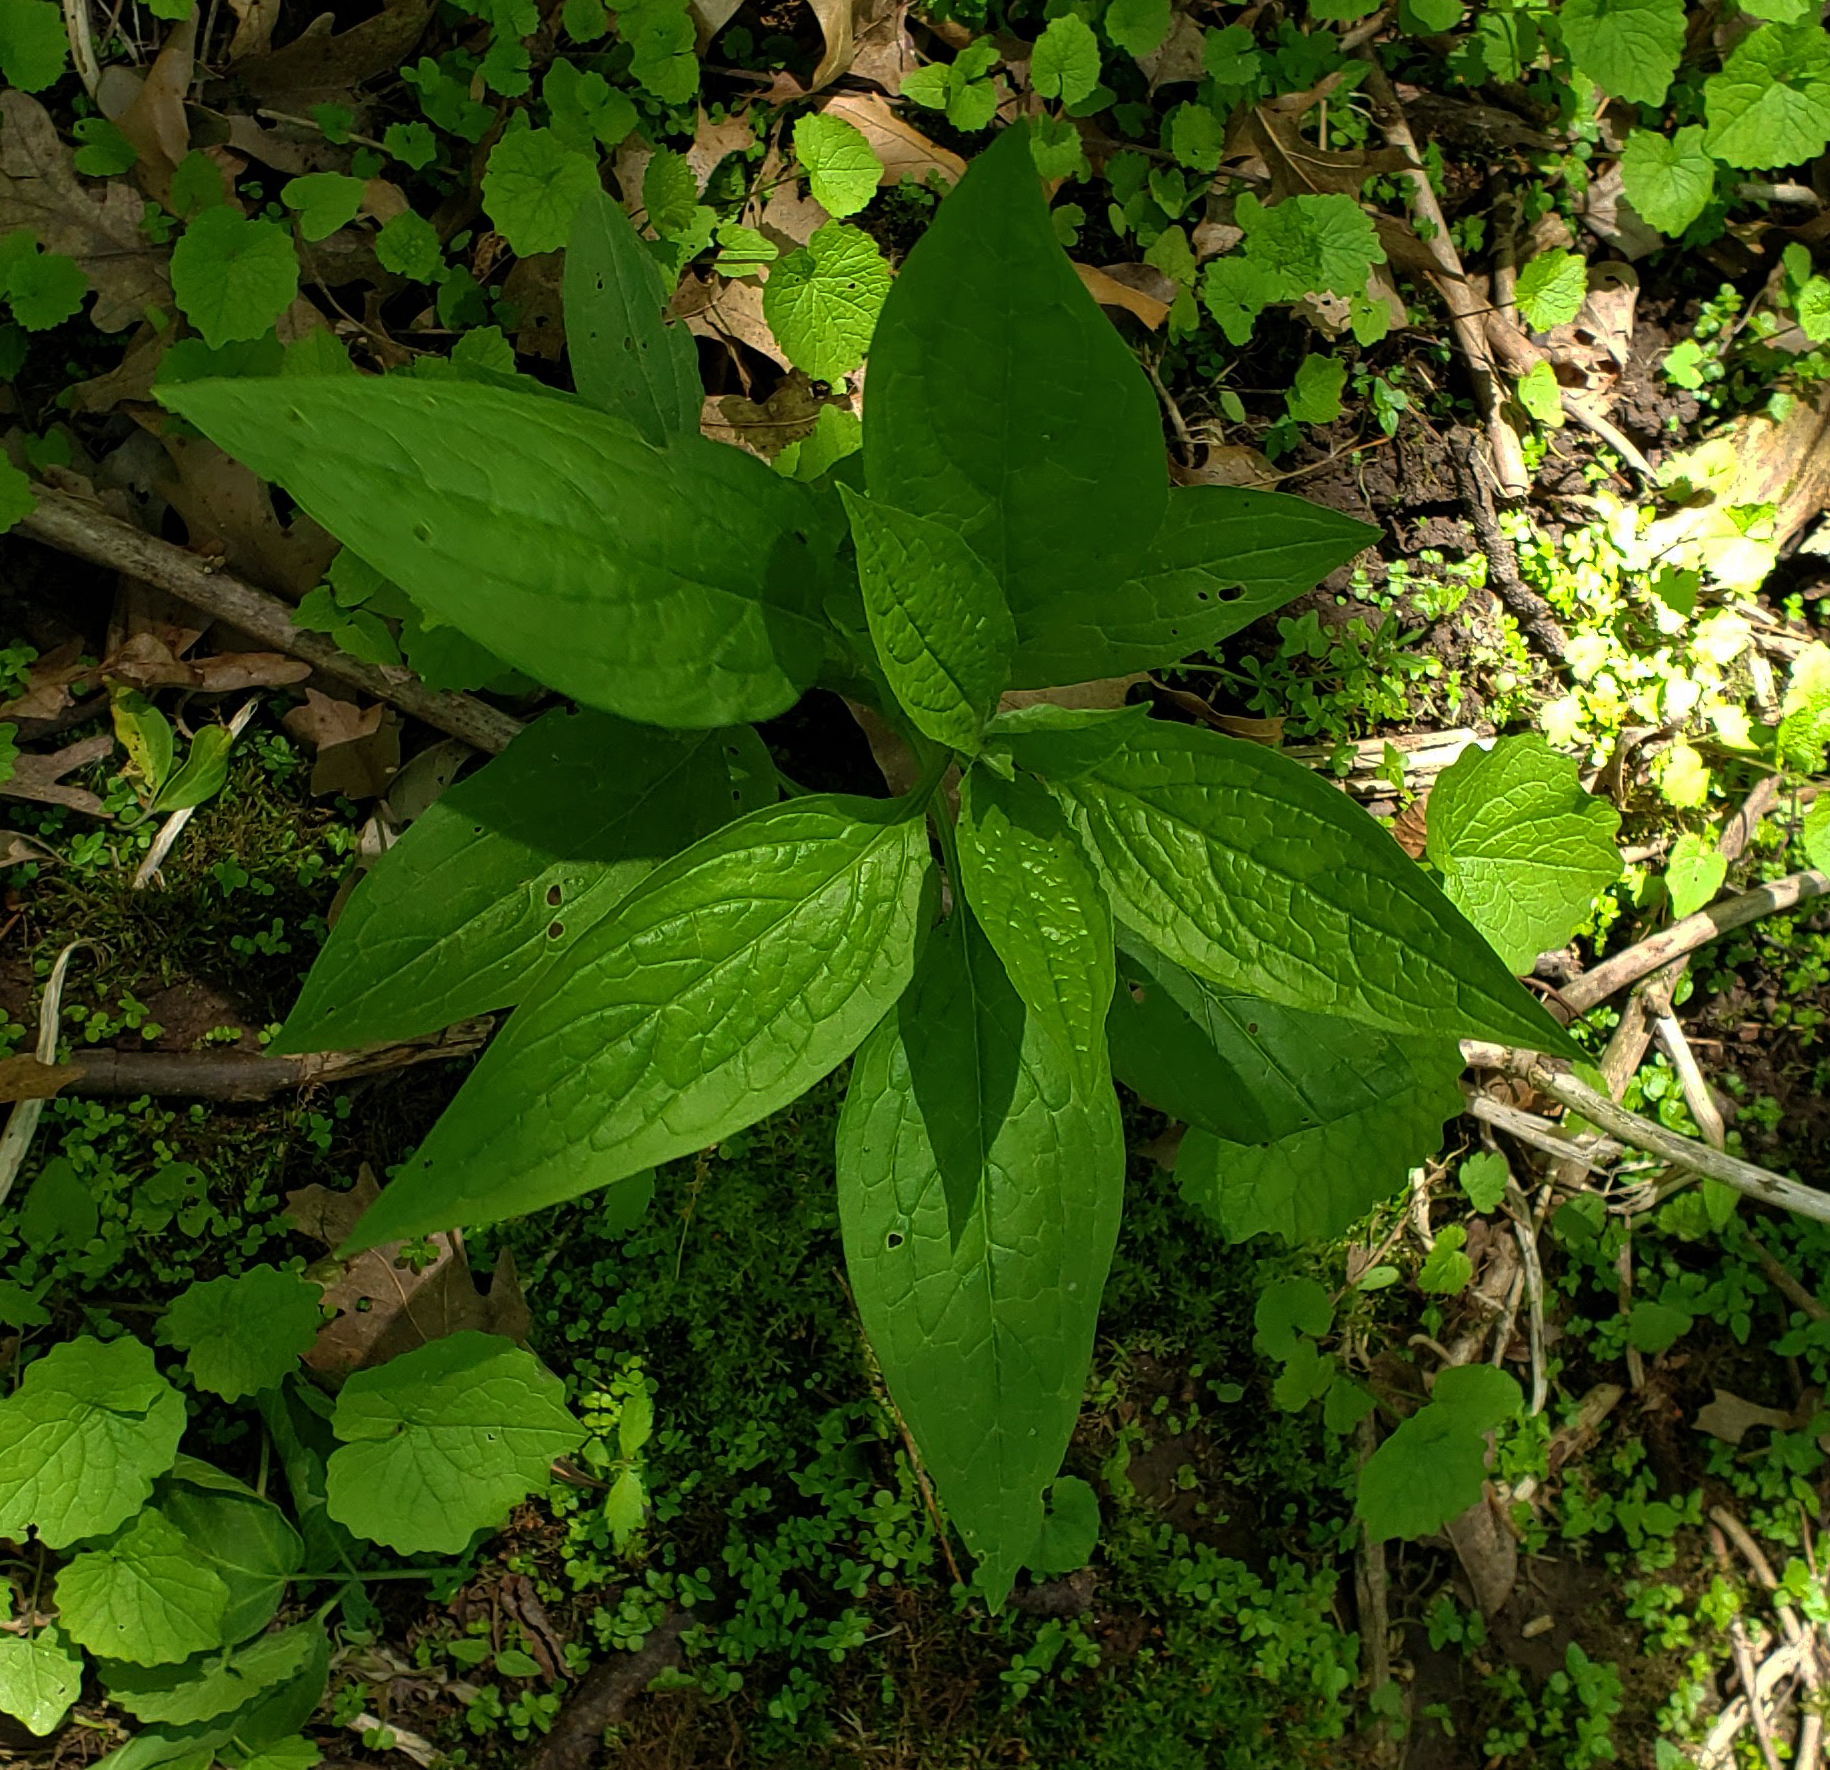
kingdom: Plantae
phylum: Tracheophyta
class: Magnoliopsida
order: Boraginales
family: Boraginaceae
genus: Hackelia
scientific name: Hackelia virginiana
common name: Beggar's-lice
